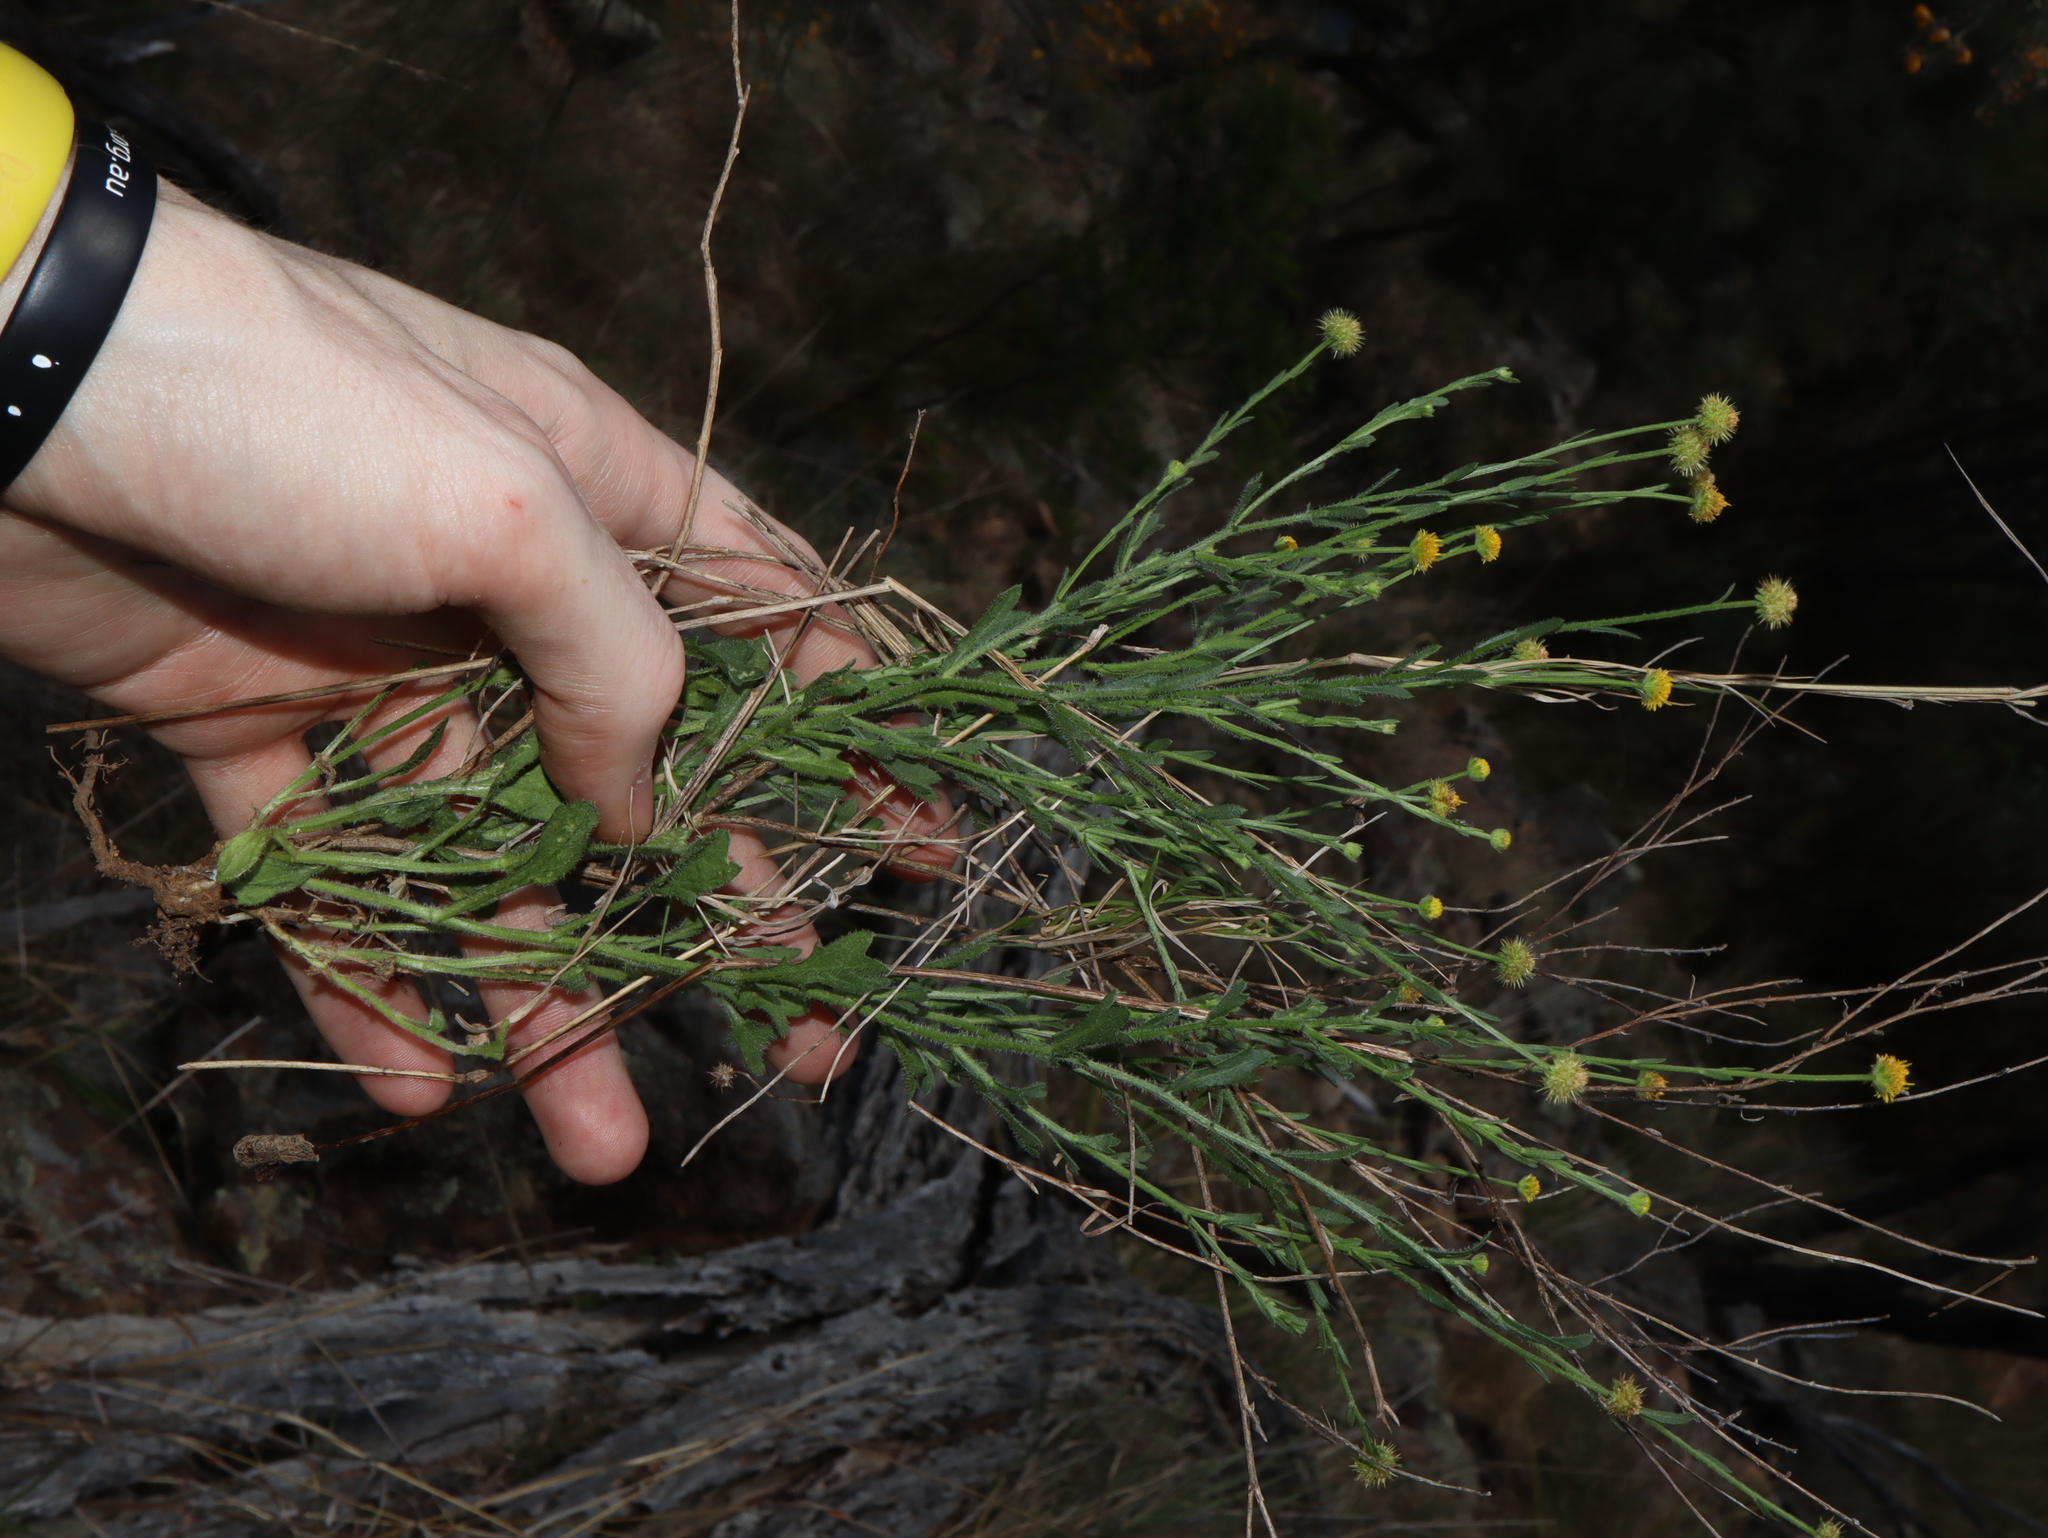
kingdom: Plantae
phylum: Tracheophyta
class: Magnoliopsida
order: Asterales
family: Asteraceae
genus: Calotis
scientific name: Calotis lappulacea
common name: Bur daisy
